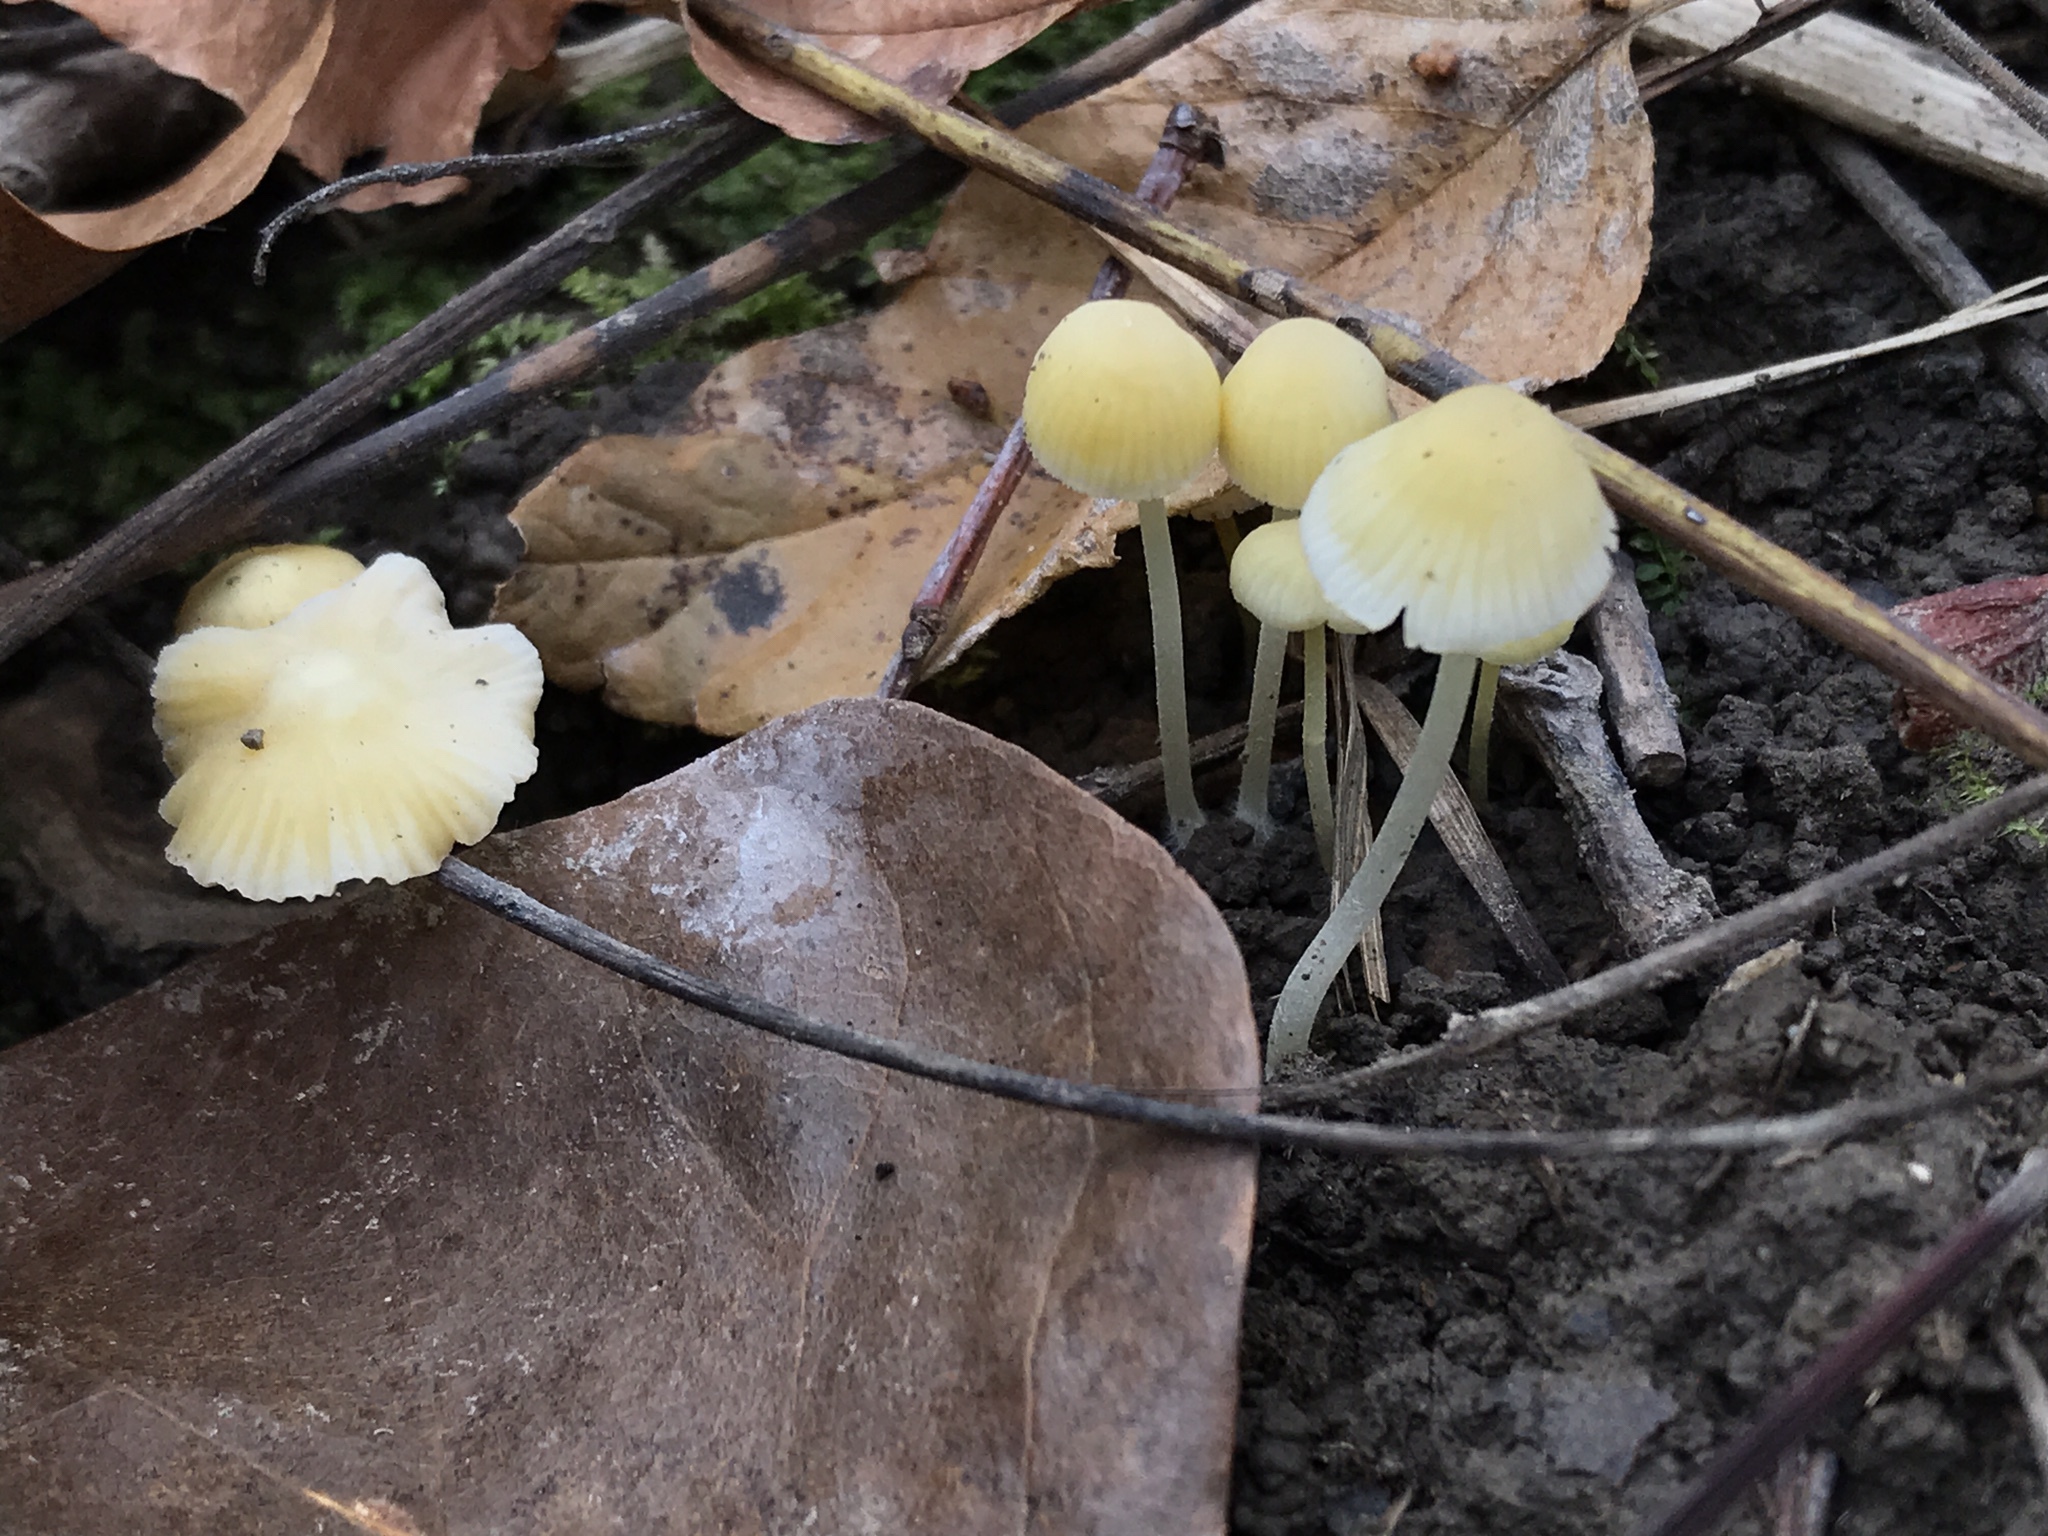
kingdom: Fungi
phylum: Basidiomycota
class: Agaricomycetes
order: Agaricales
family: Mycenaceae
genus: Mycena
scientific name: Mycena crocea
